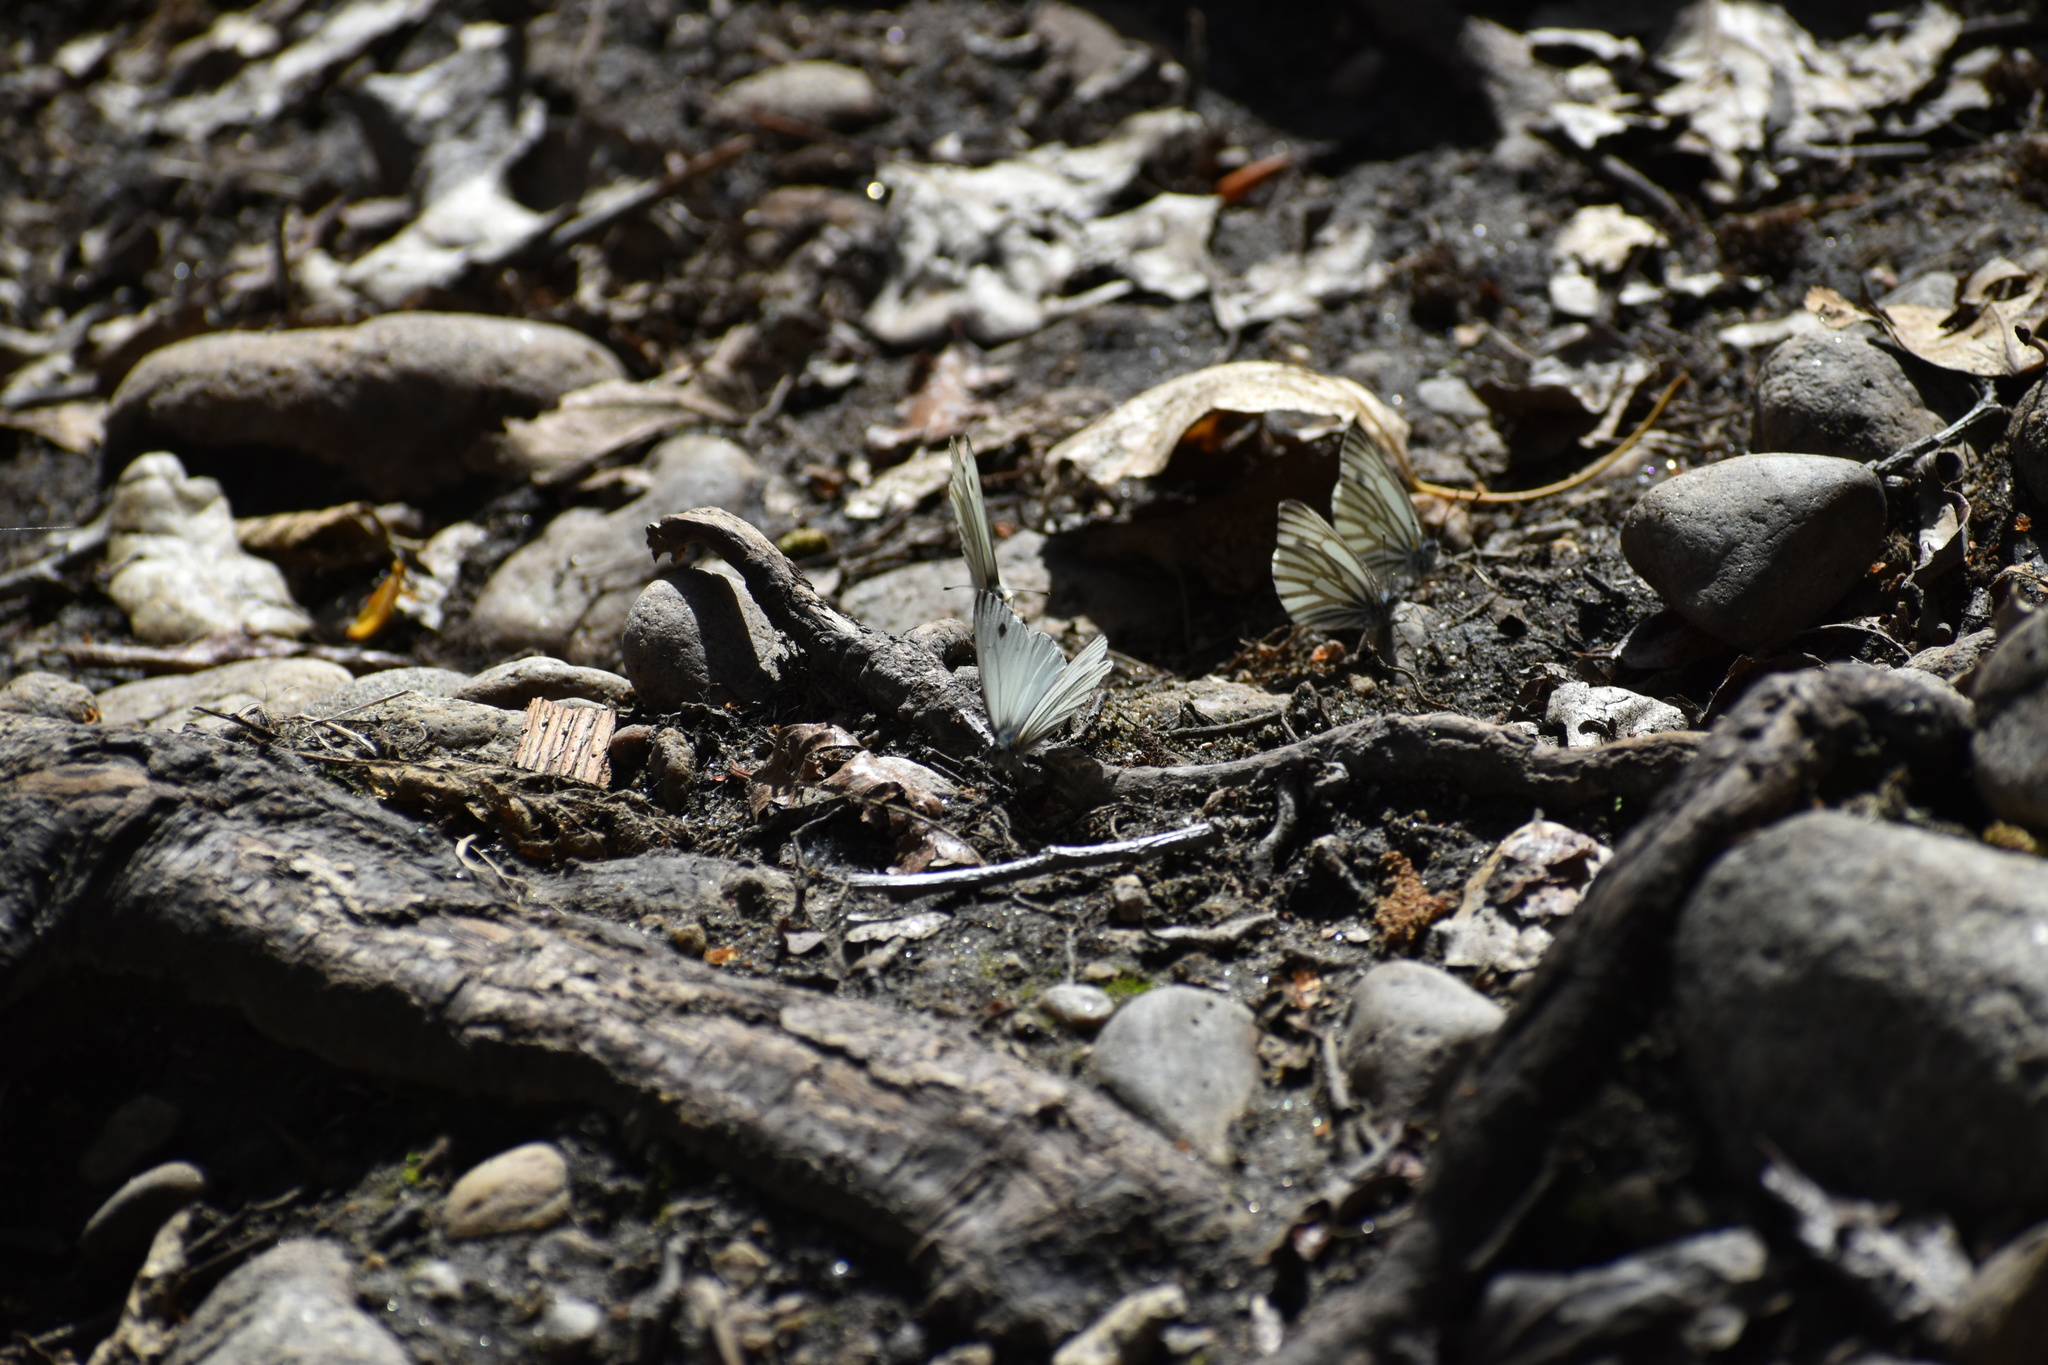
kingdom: Animalia
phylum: Arthropoda
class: Insecta
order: Lepidoptera
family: Pieridae
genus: Pieris
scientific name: Pieris marginalis
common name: Margined white
